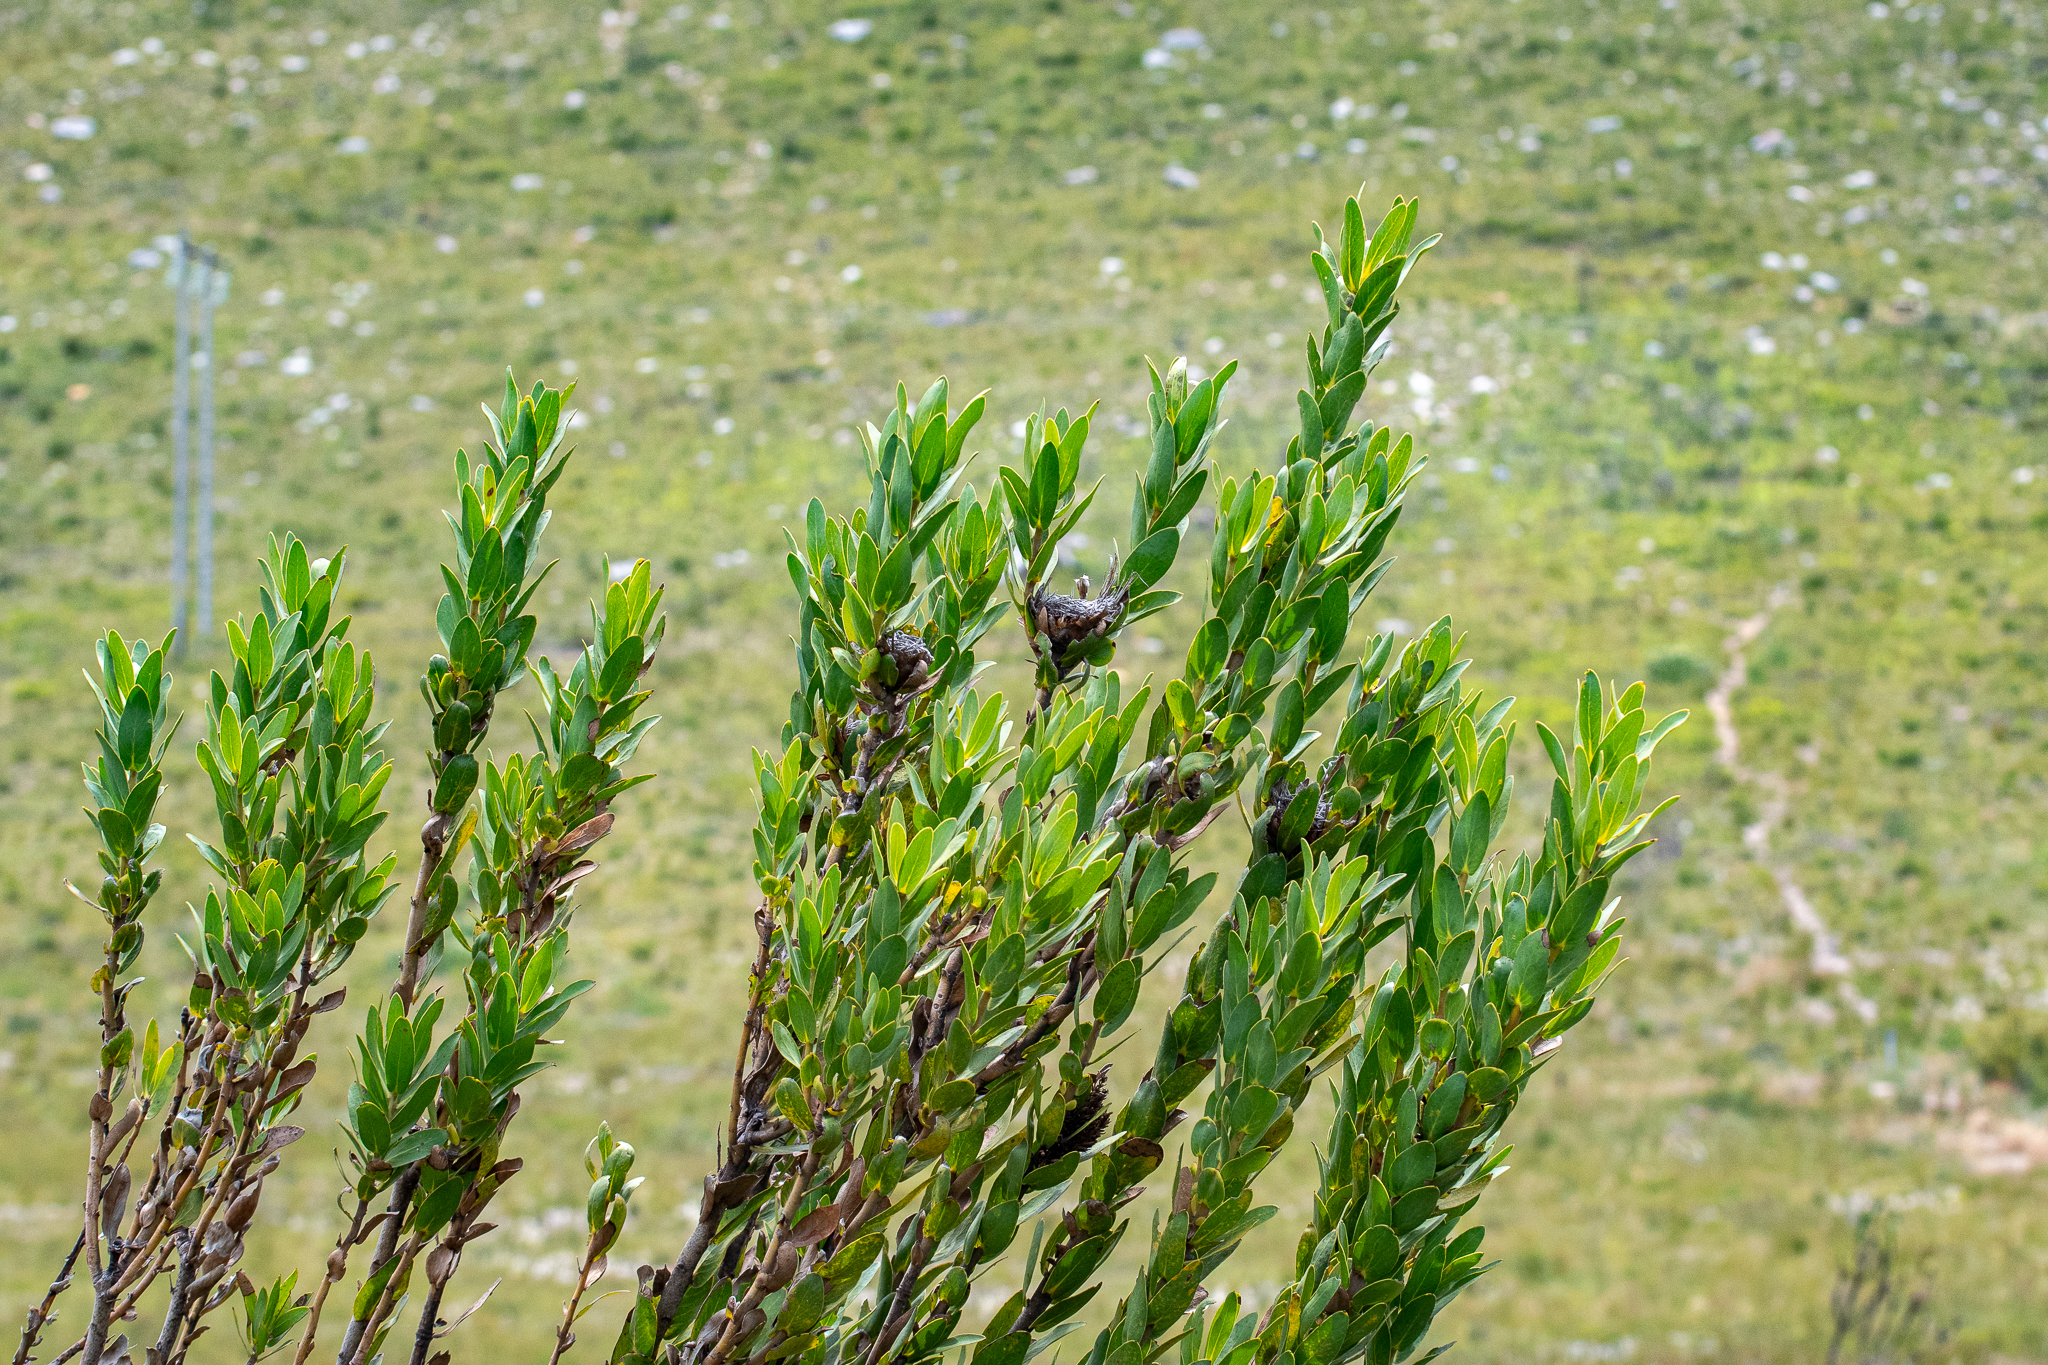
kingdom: Plantae
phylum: Tracheophyta
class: Magnoliopsida
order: Proteales
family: Proteaceae
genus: Protea
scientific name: Protea compacta
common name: Bot river protea
